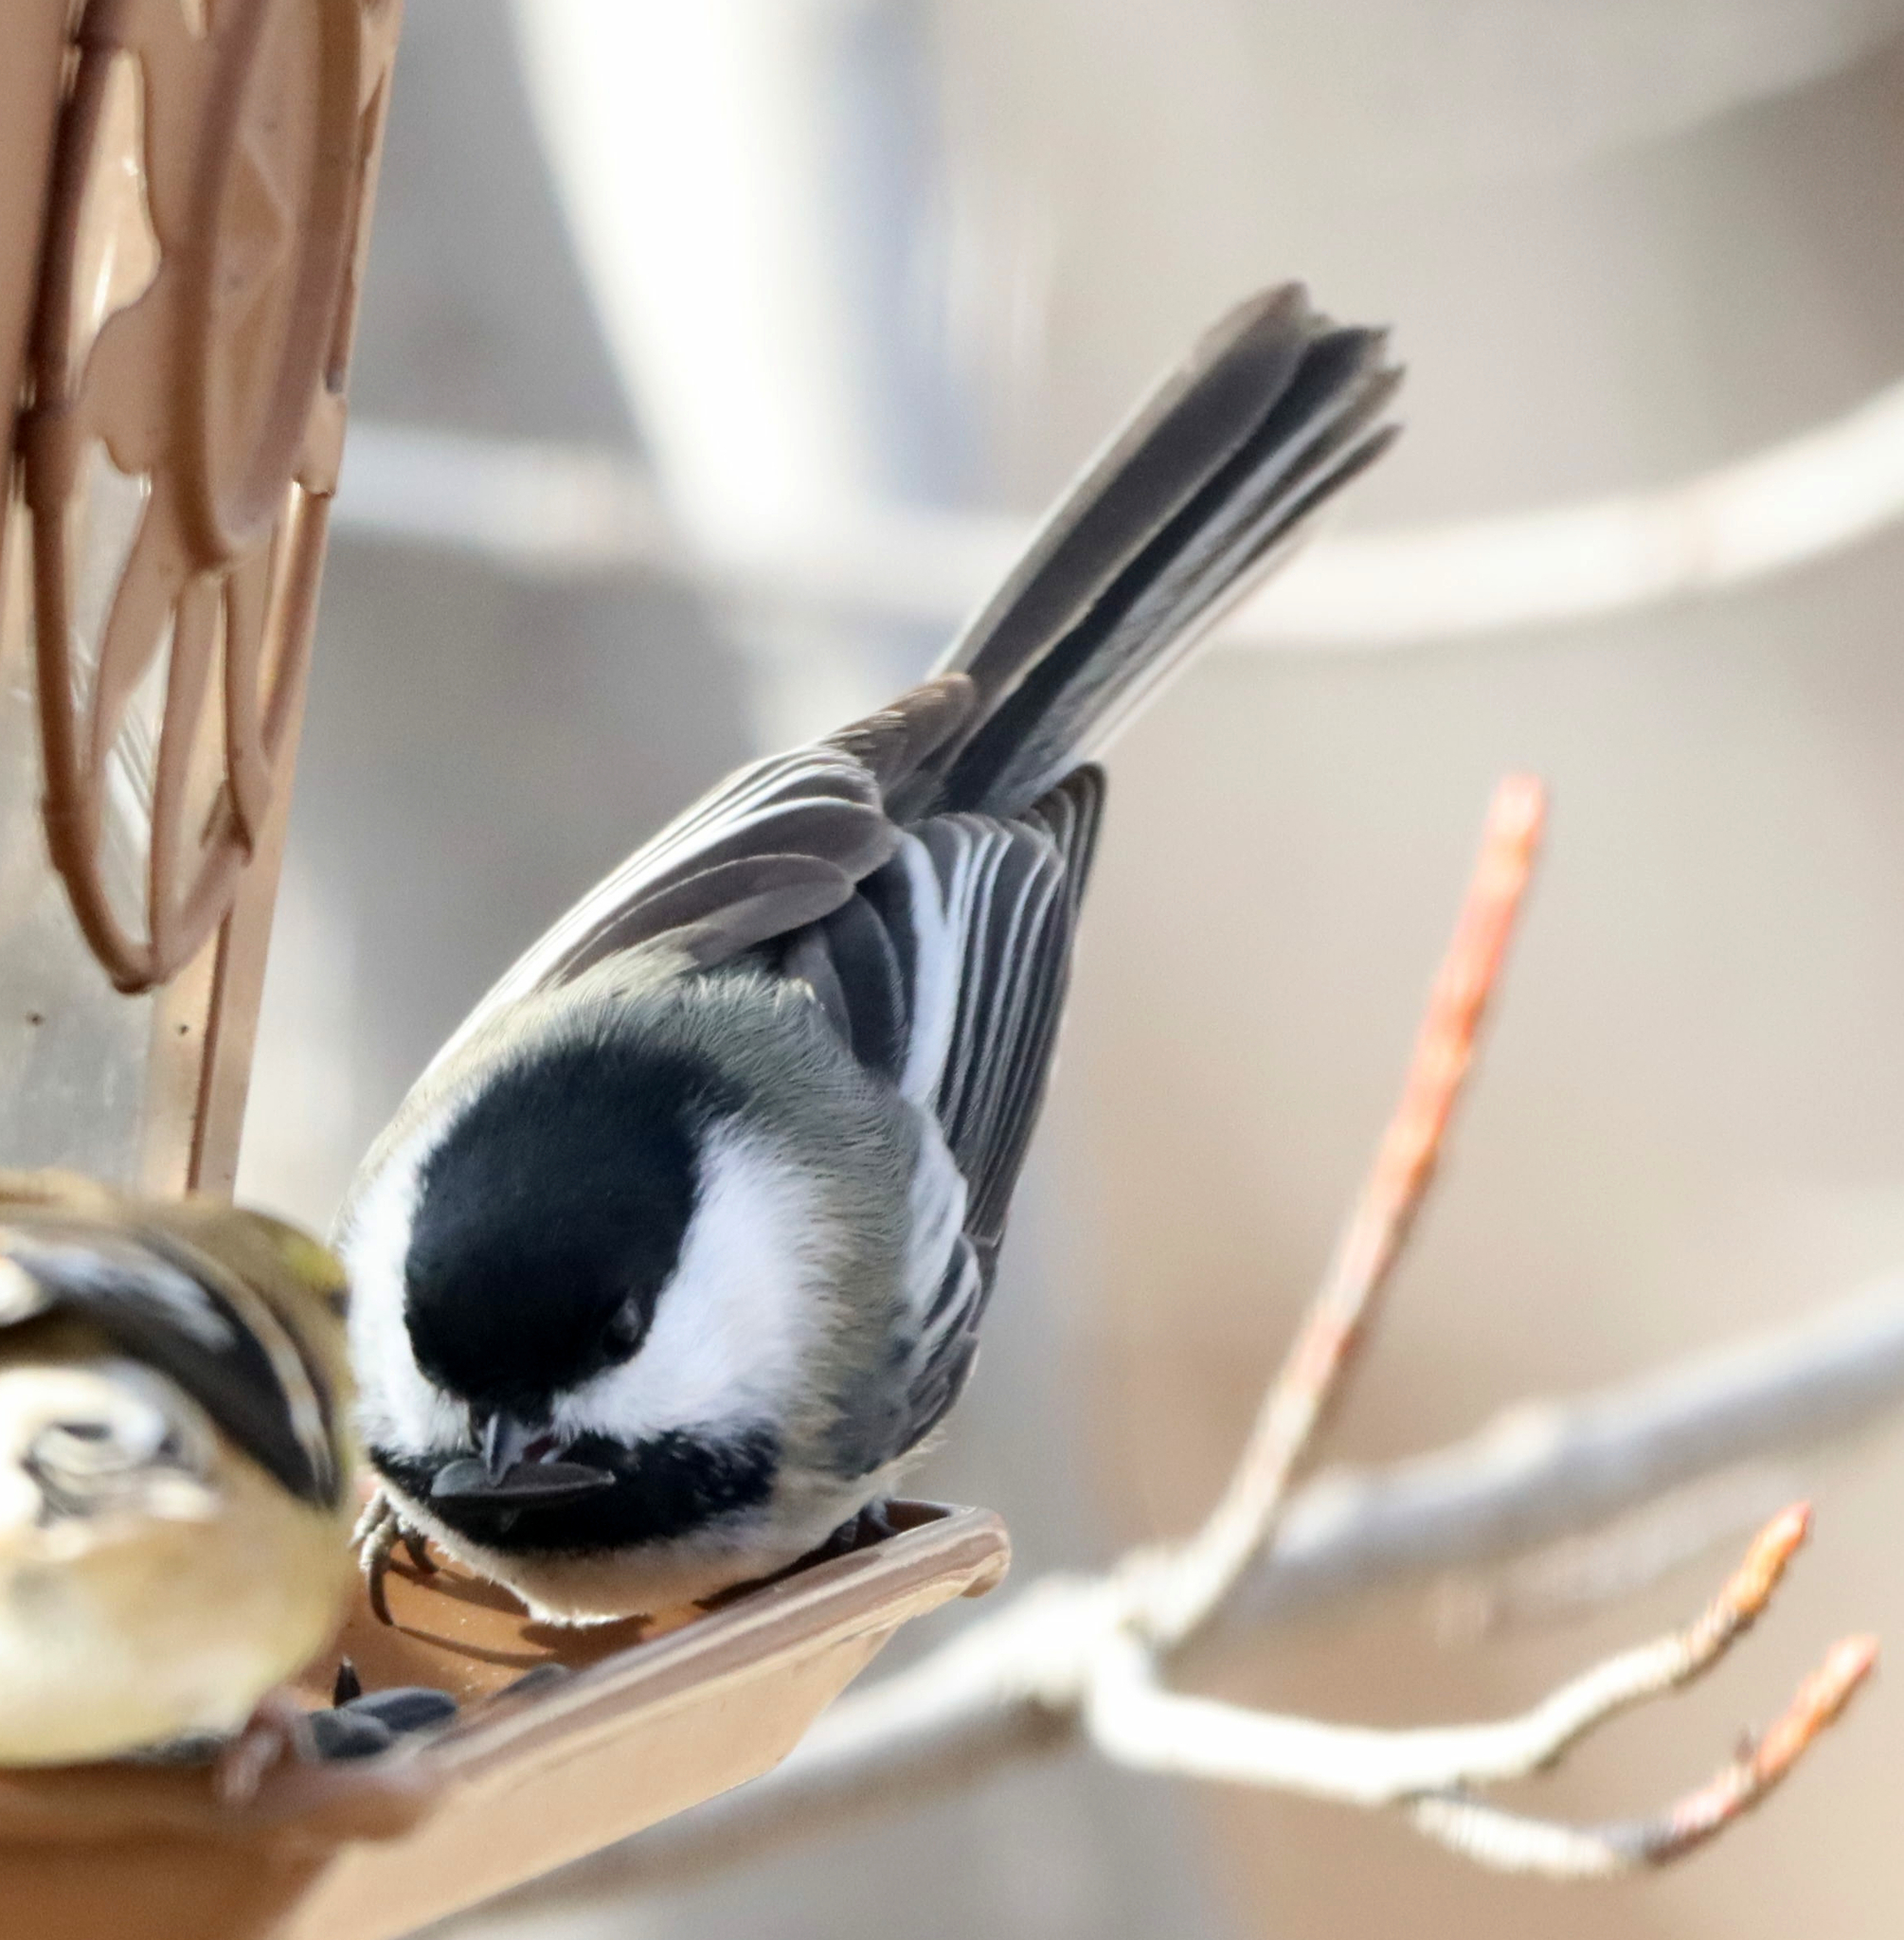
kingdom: Animalia
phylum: Chordata
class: Aves
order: Passeriformes
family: Paridae
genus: Poecile
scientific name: Poecile atricapillus
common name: Black-capped chickadee
